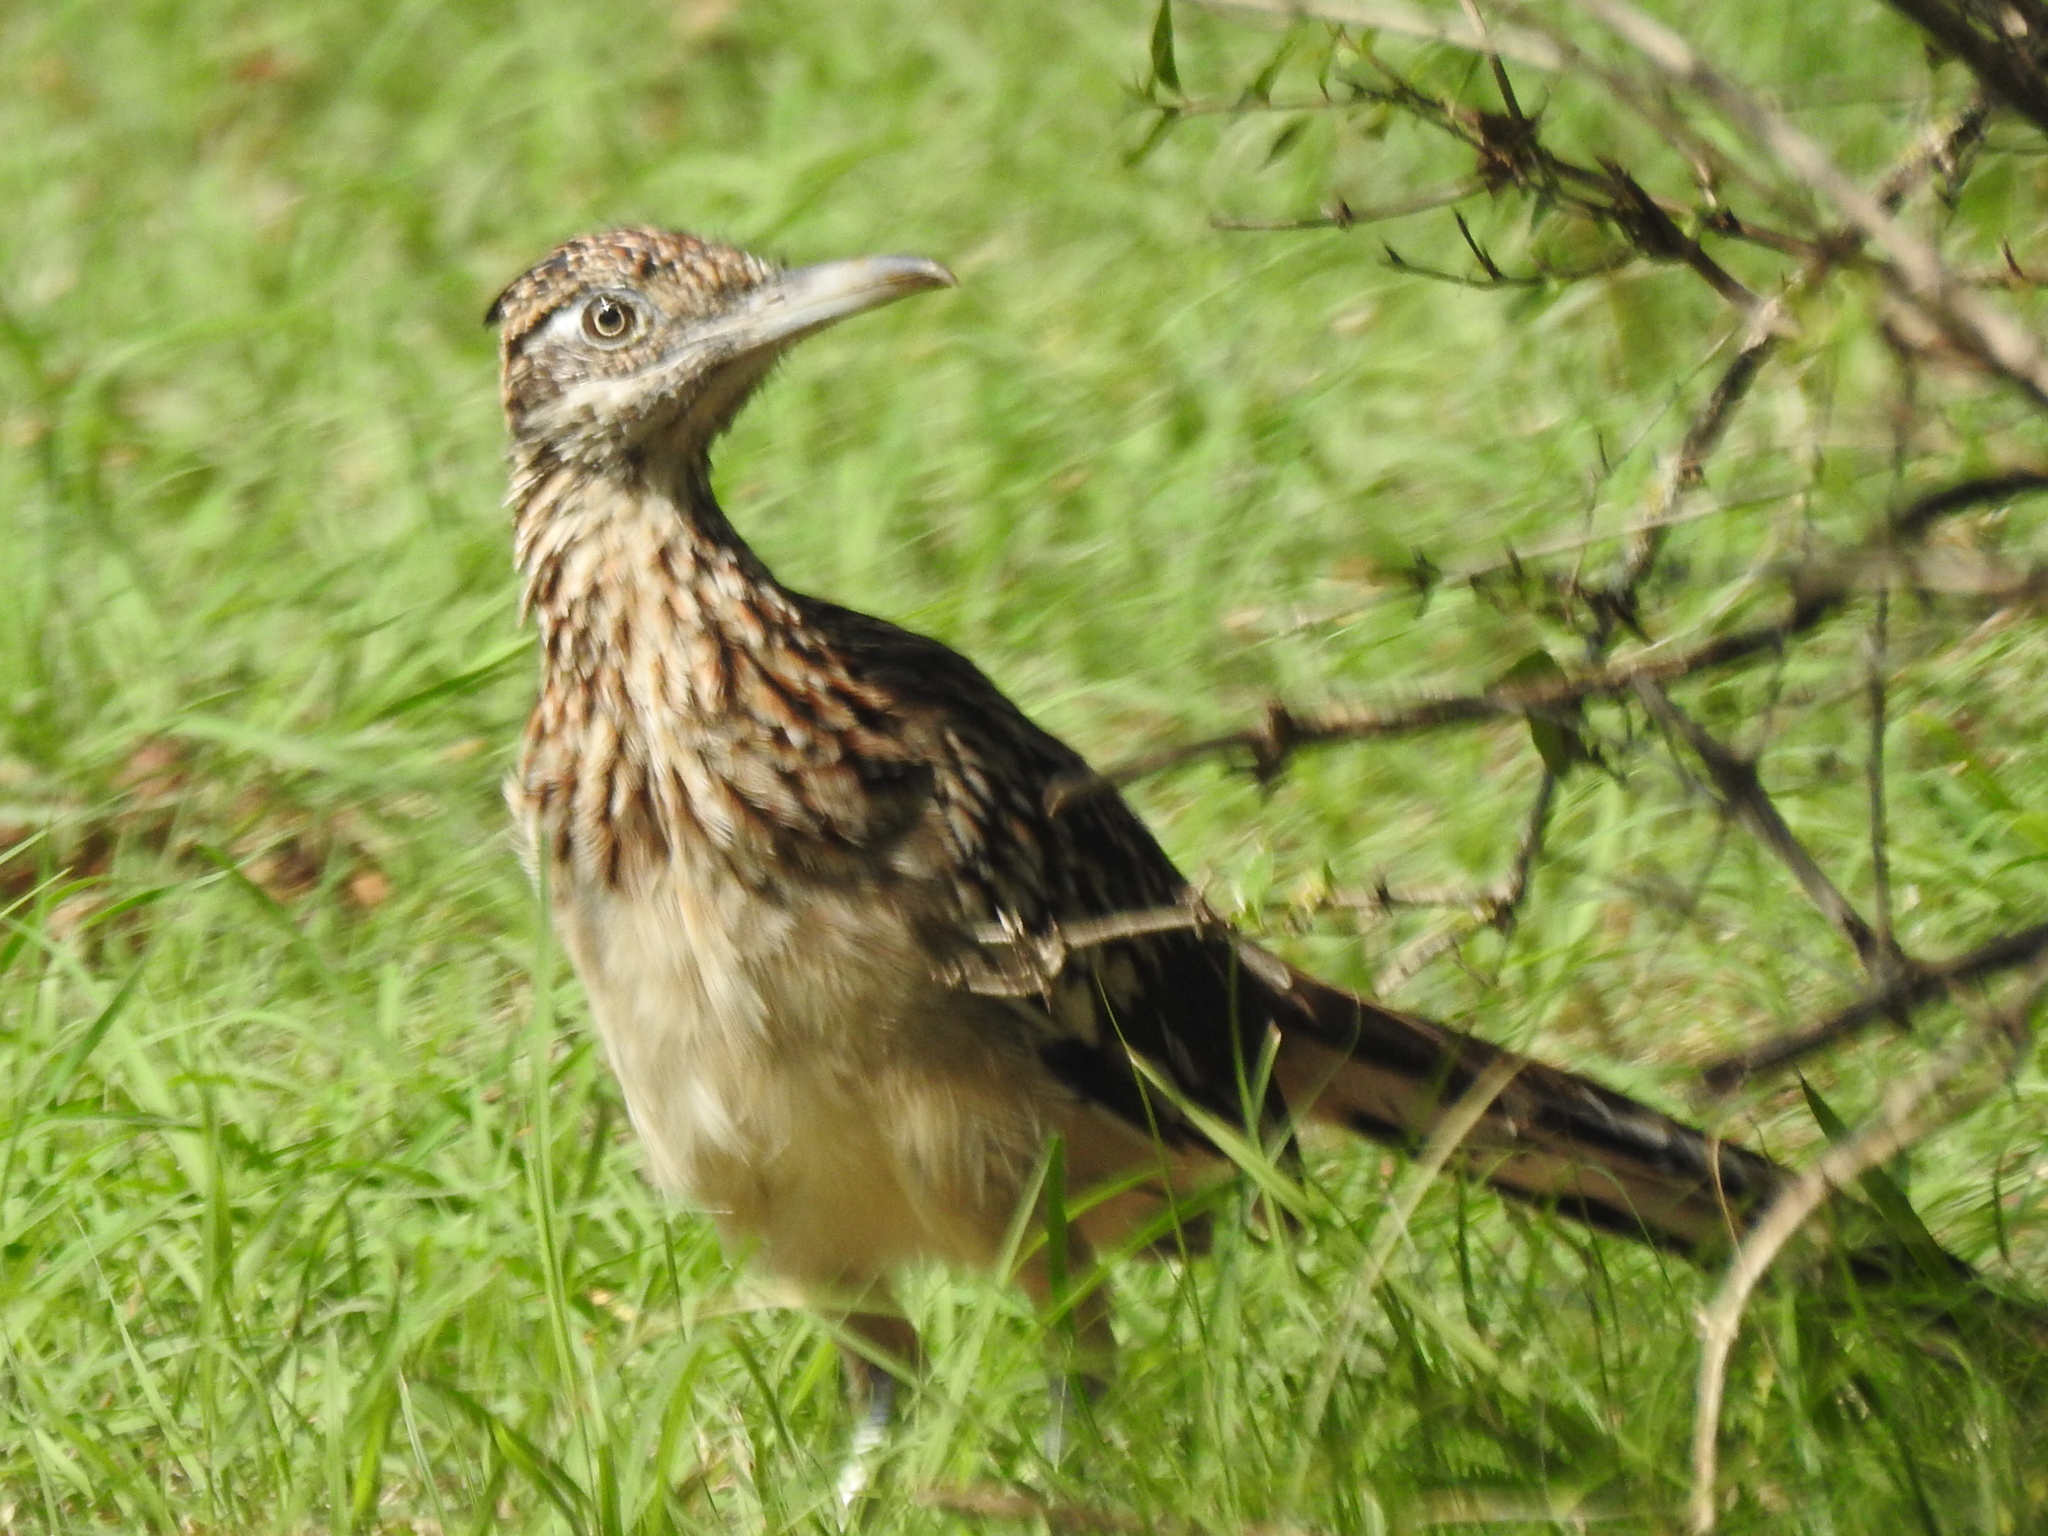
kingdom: Animalia
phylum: Chordata
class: Aves
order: Cuculiformes
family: Cuculidae
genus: Geococcyx
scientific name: Geococcyx californianus
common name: Greater roadrunner
